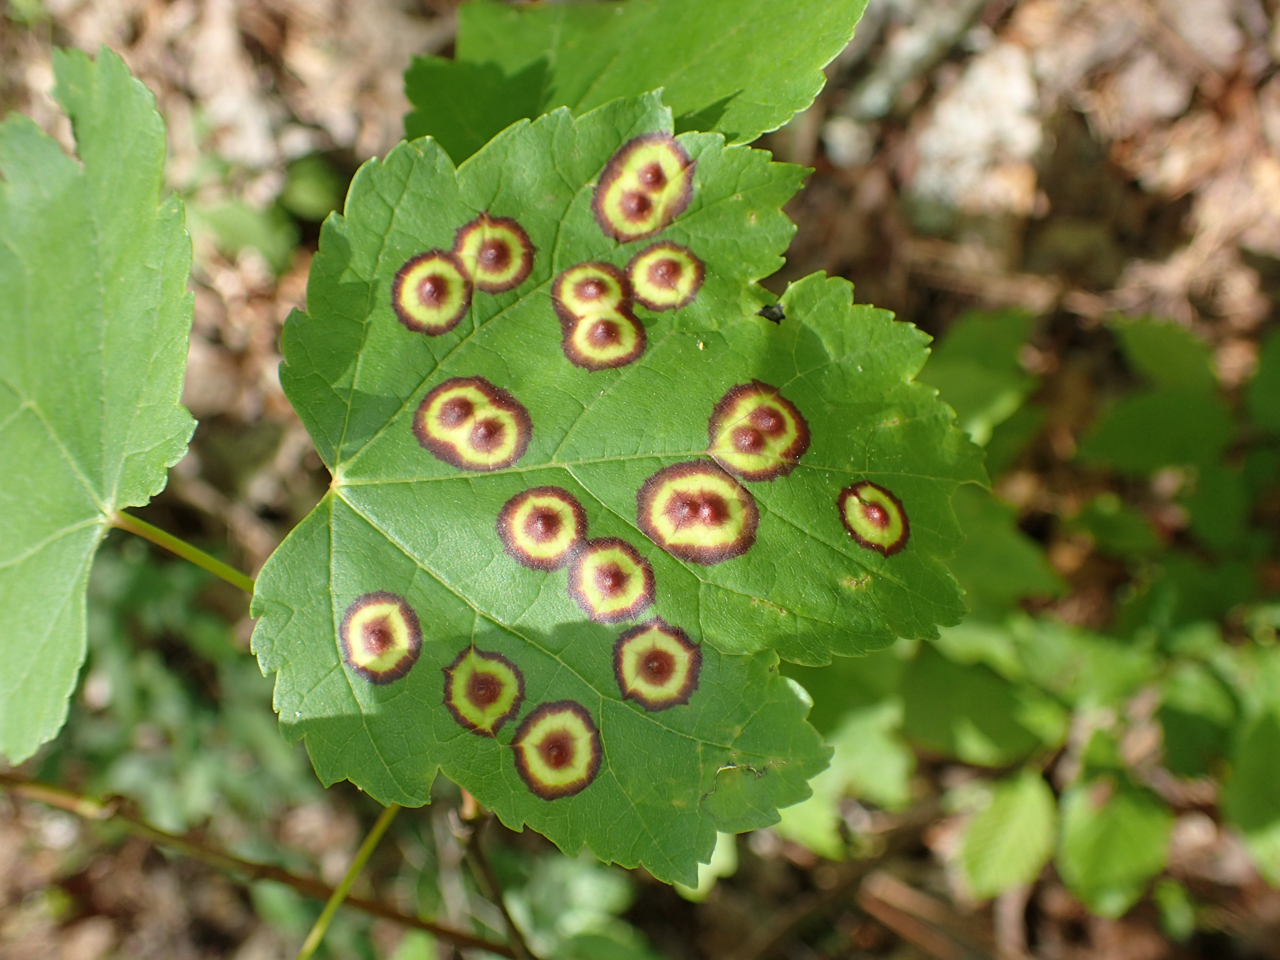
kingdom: Animalia
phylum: Arthropoda
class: Insecta
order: Diptera
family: Cecidomyiidae
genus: Acericecis
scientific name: Acericecis ocellaris
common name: Ocellate gall midge
